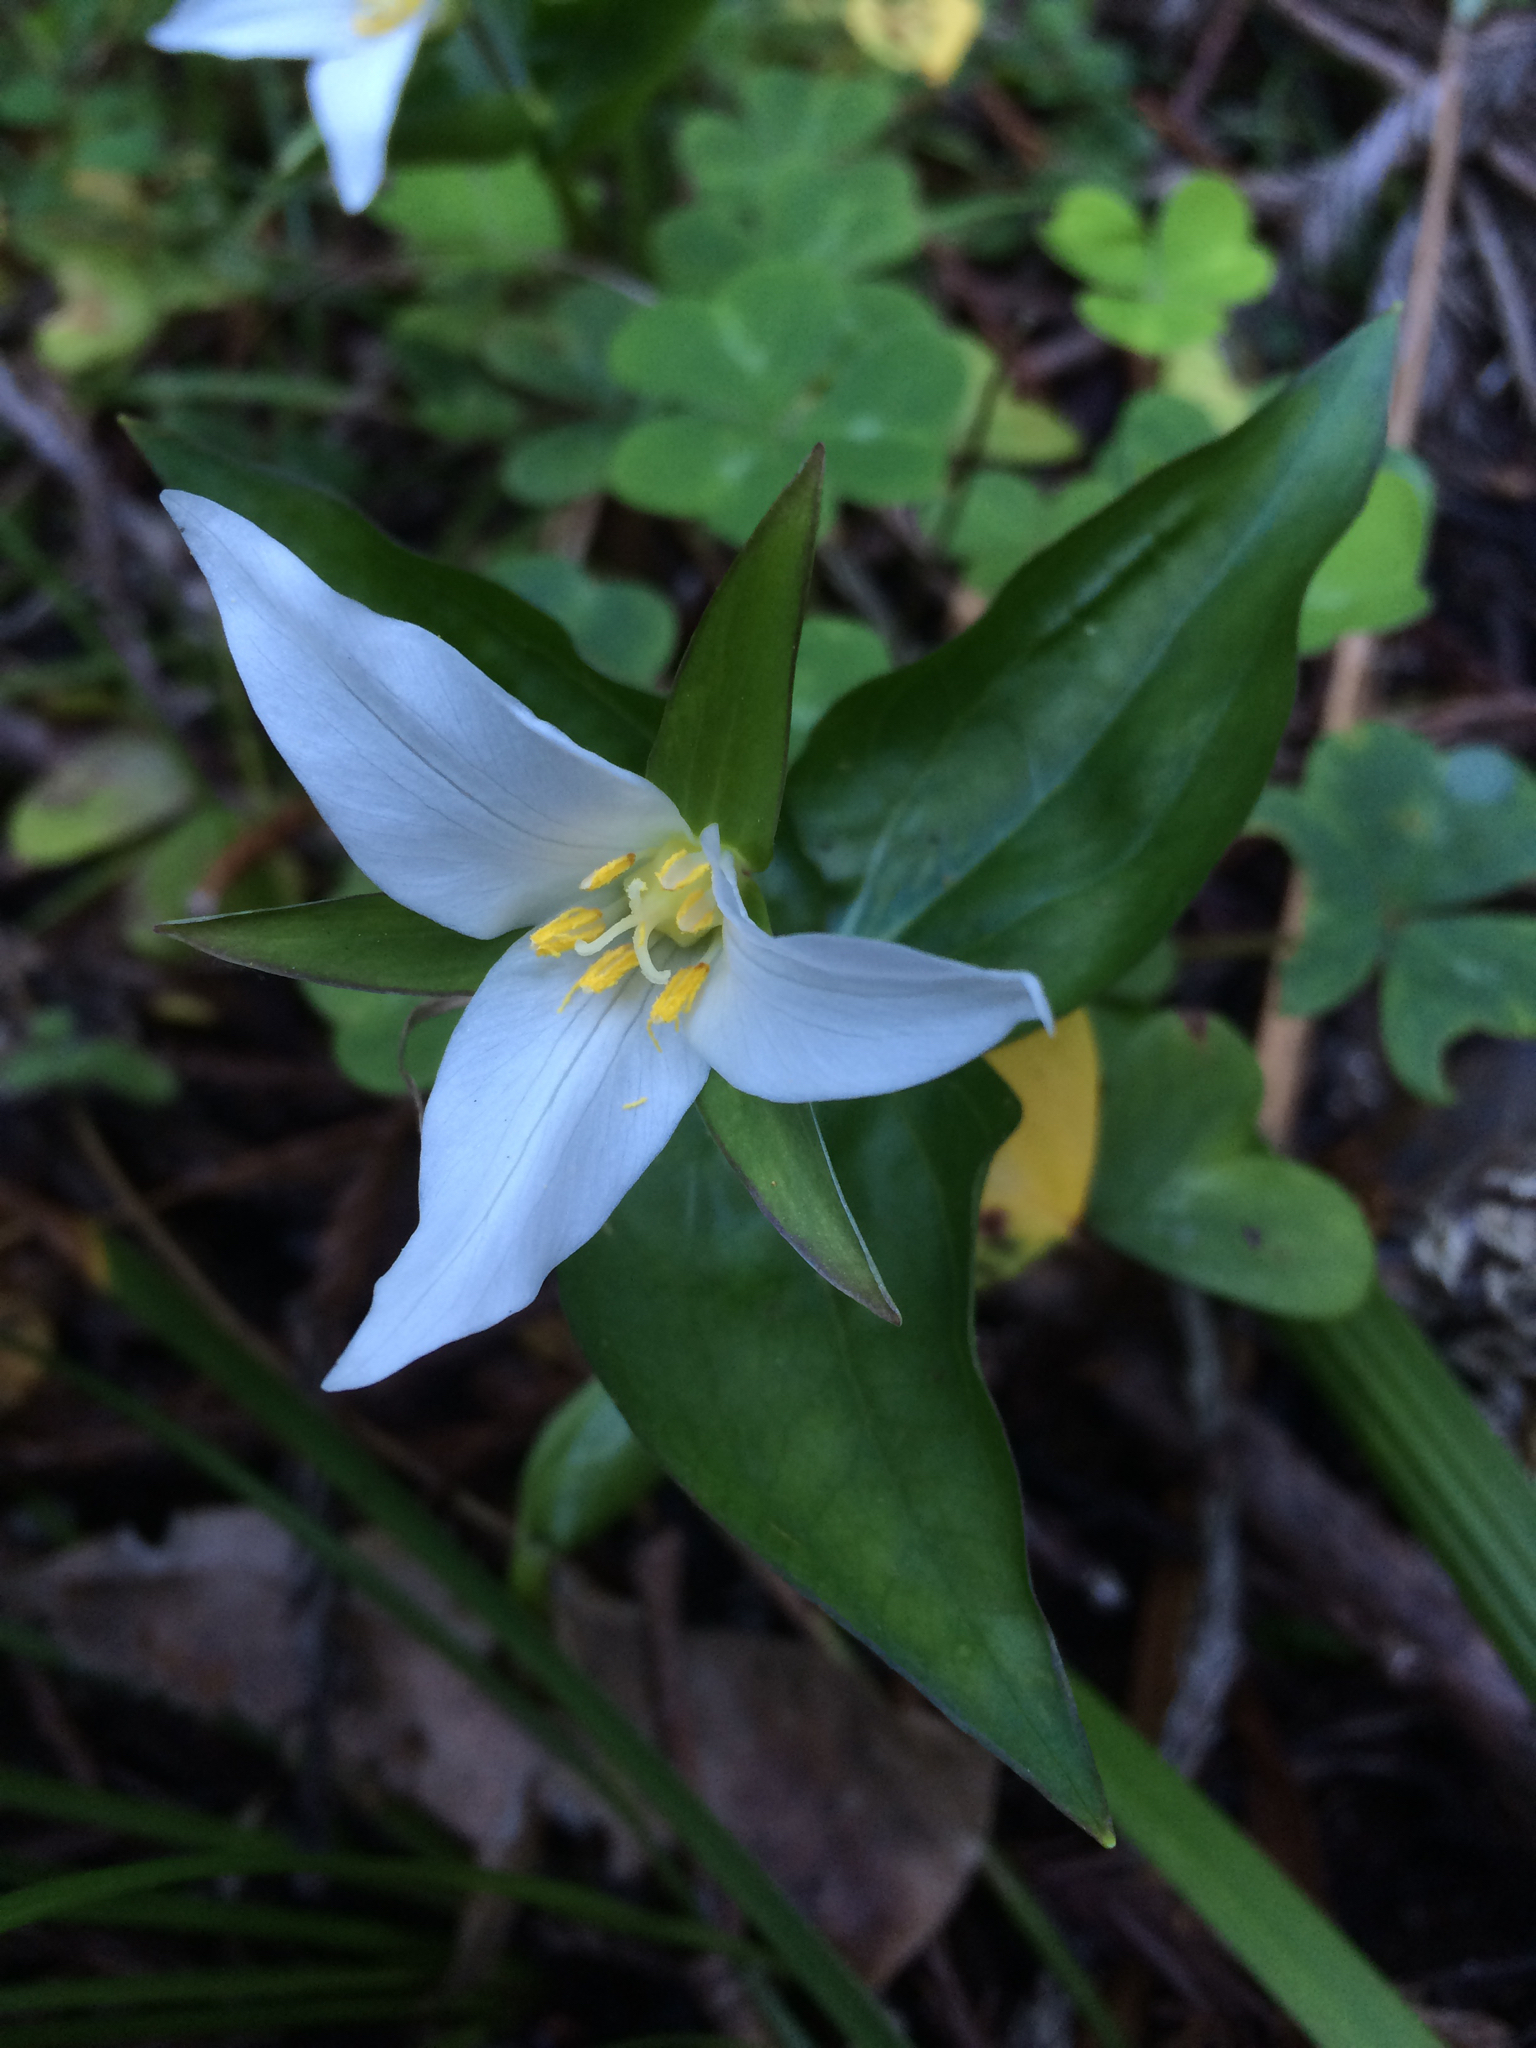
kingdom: Plantae
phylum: Tracheophyta
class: Liliopsida
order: Liliales
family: Melanthiaceae
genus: Trillium
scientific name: Trillium ovatum
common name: Pacific trillium
